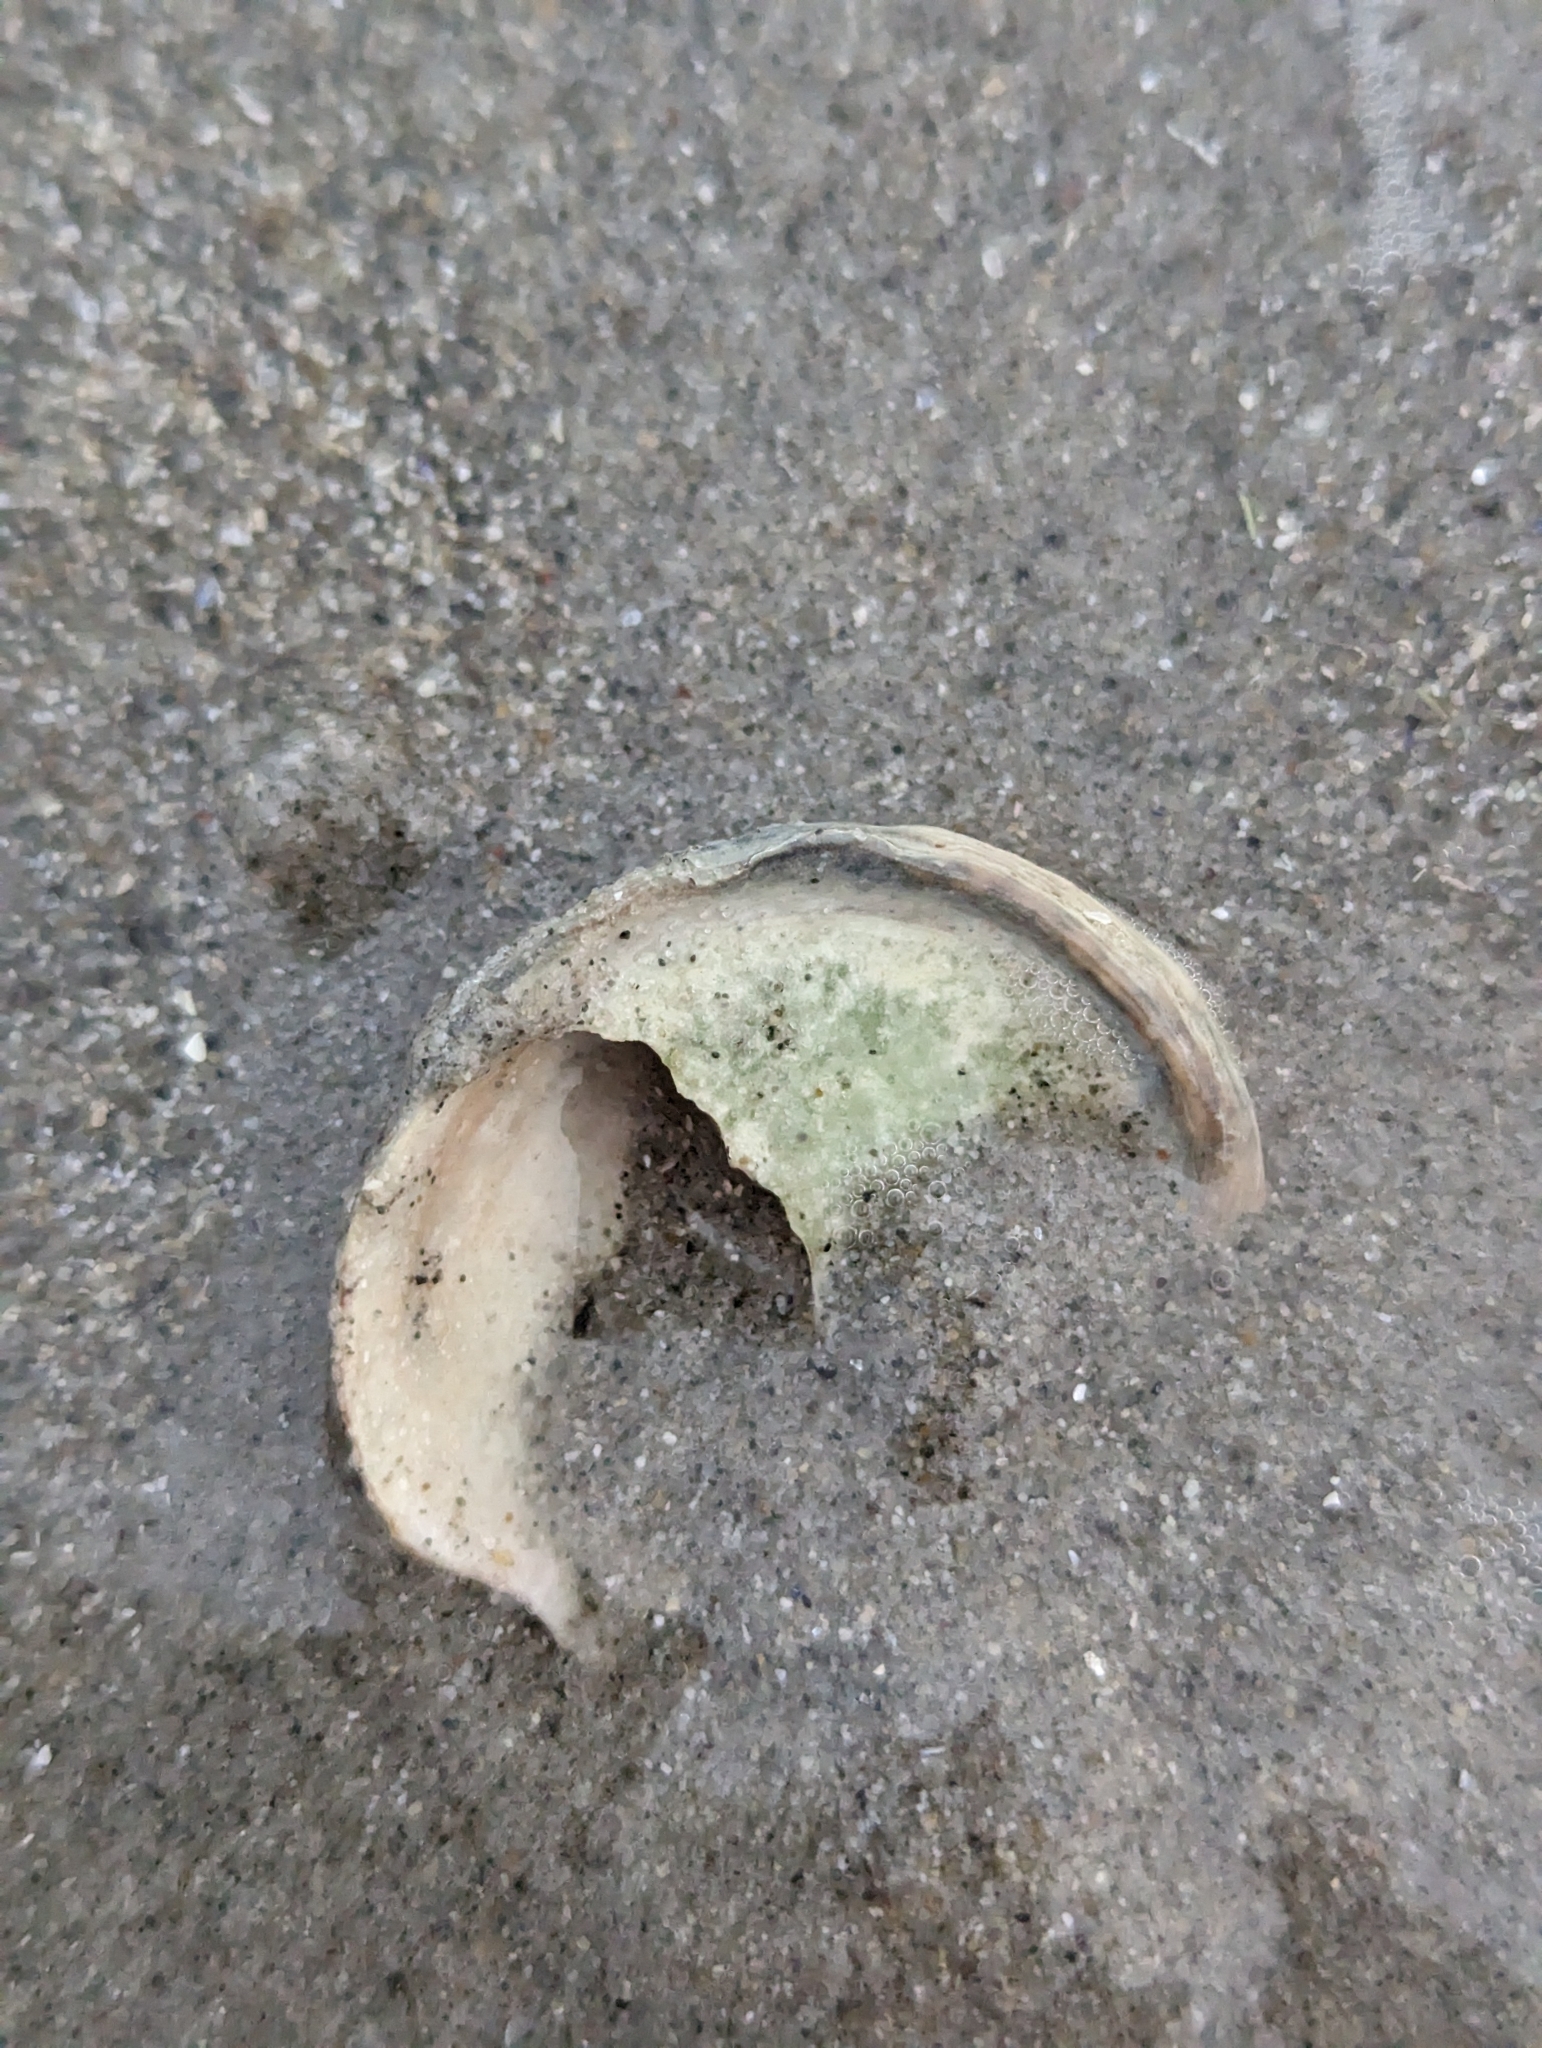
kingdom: Animalia
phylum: Mollusca
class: Gastropoda
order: Littorinimorpha
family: Calyptraeidae
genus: Crepidula
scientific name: Crepidula fornicata
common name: Slipper limpet
